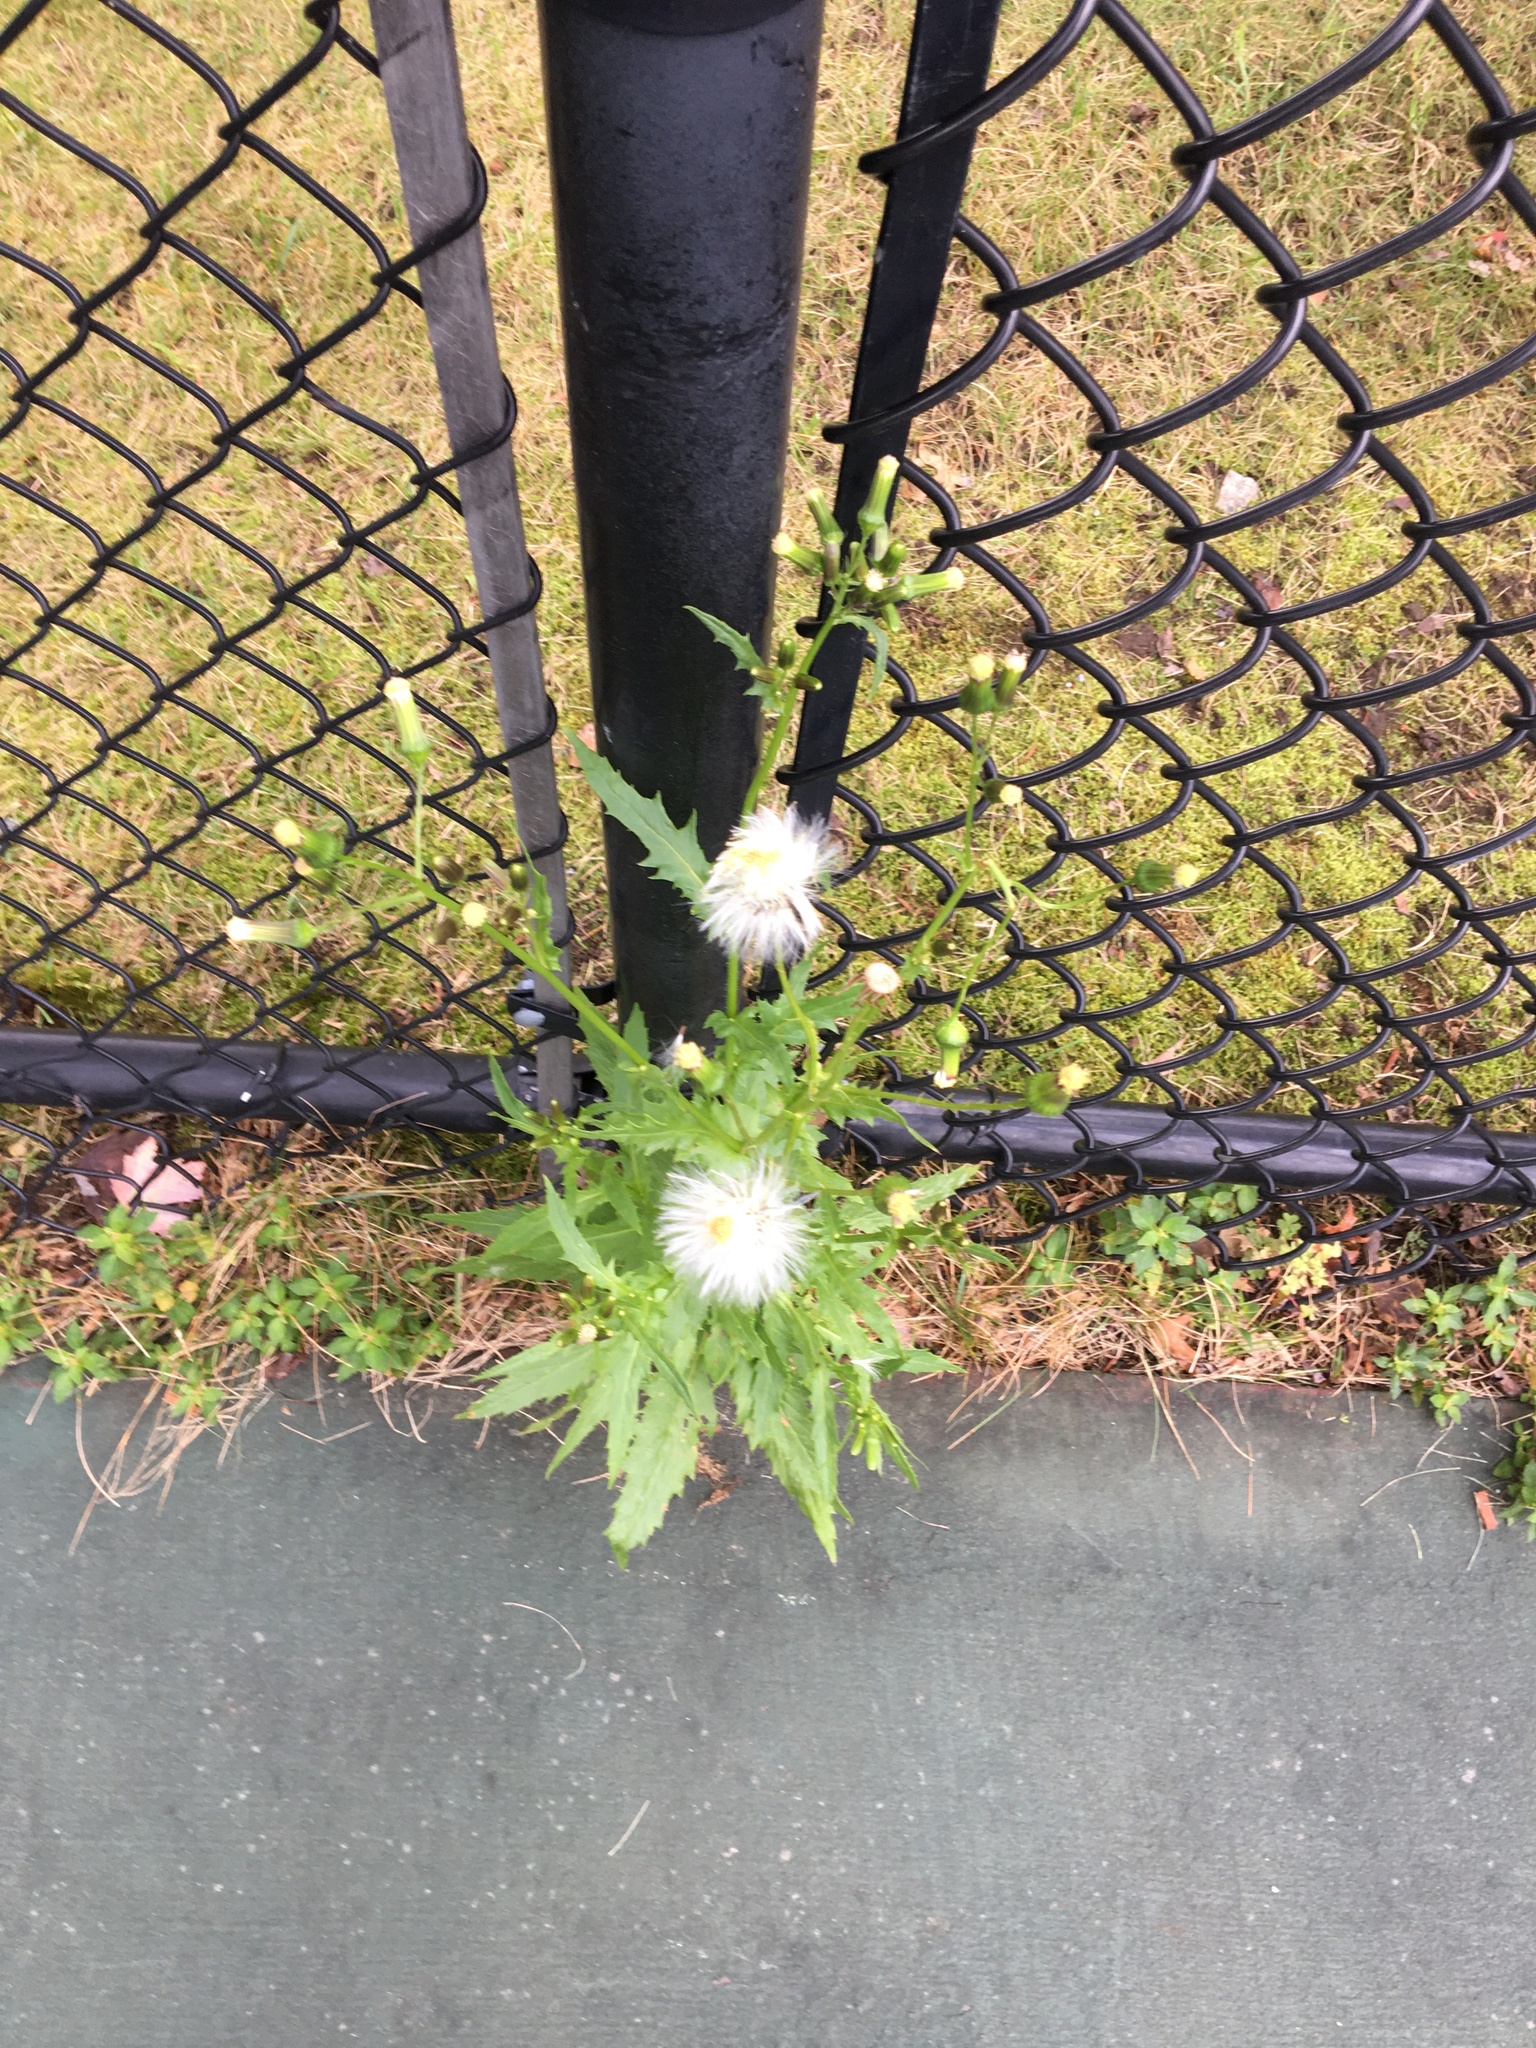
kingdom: Plantae
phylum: Tracheophyta
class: Magnoliopsida
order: Asterales
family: Asteraceae
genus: Erechtites
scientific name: Erechtites hieraciifolius
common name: American burnweed
